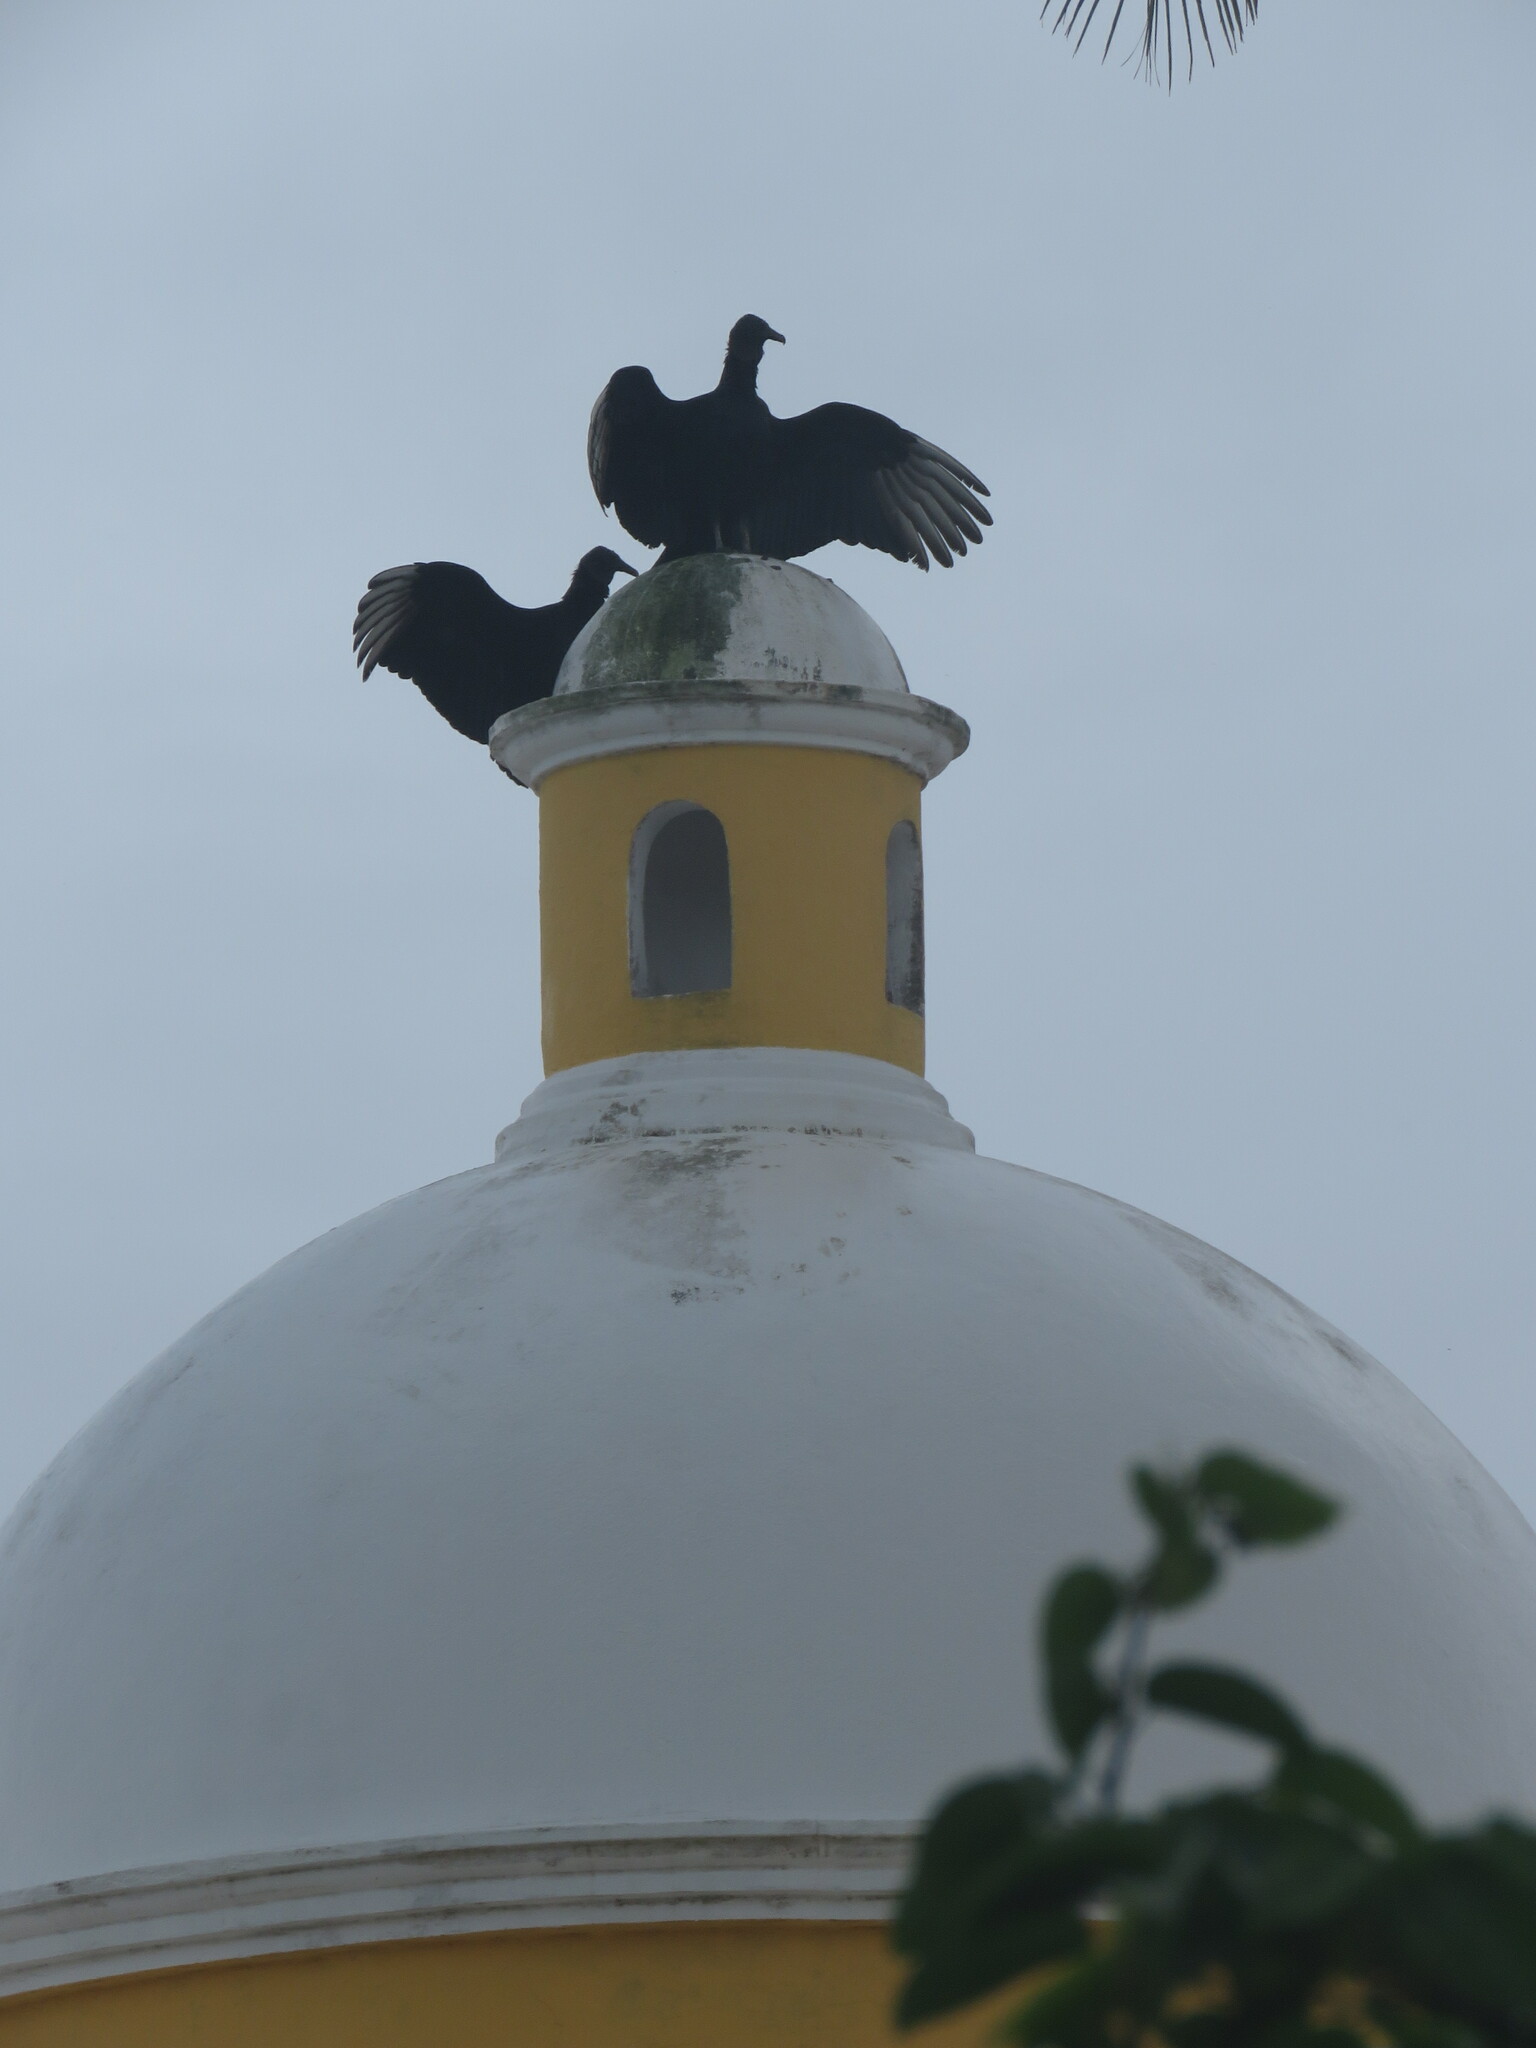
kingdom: Animalia
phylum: Chordata
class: Aves
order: Accipitriformes
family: Cathartidae
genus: Coragyps
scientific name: Coragyps atratus
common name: Black vulture
